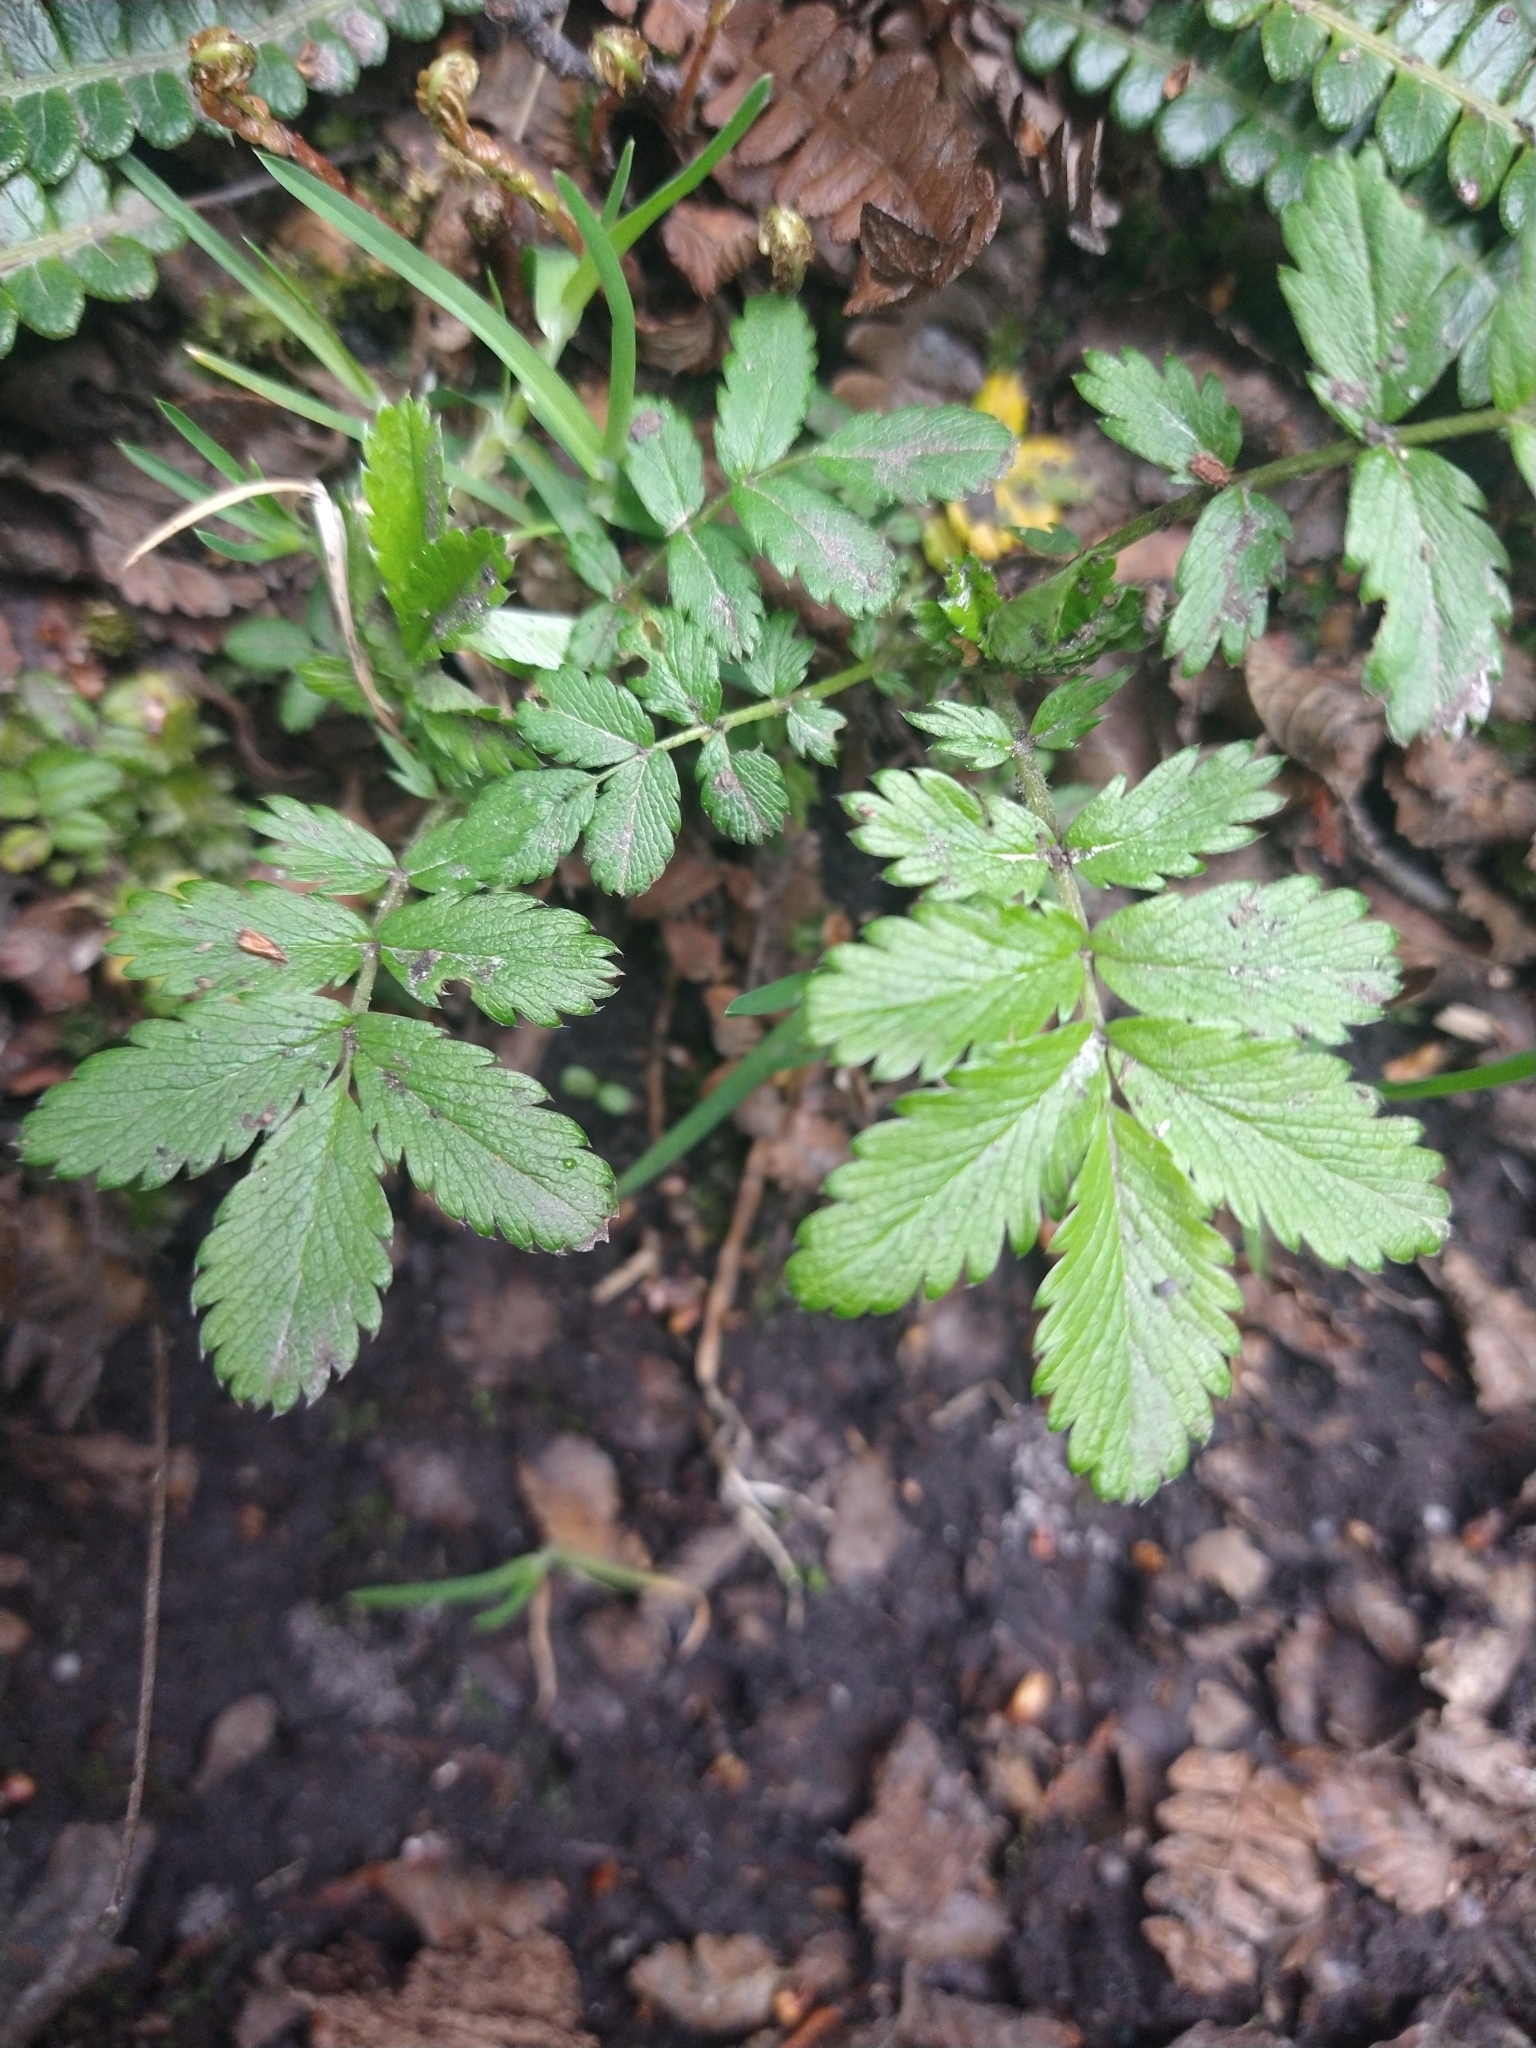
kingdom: Plantae
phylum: Tracheophyta
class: Magnoliopsida
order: Rosales
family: Rosaceae
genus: Acaena
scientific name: Acaena ovalifolia
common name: Two-spined acaena
